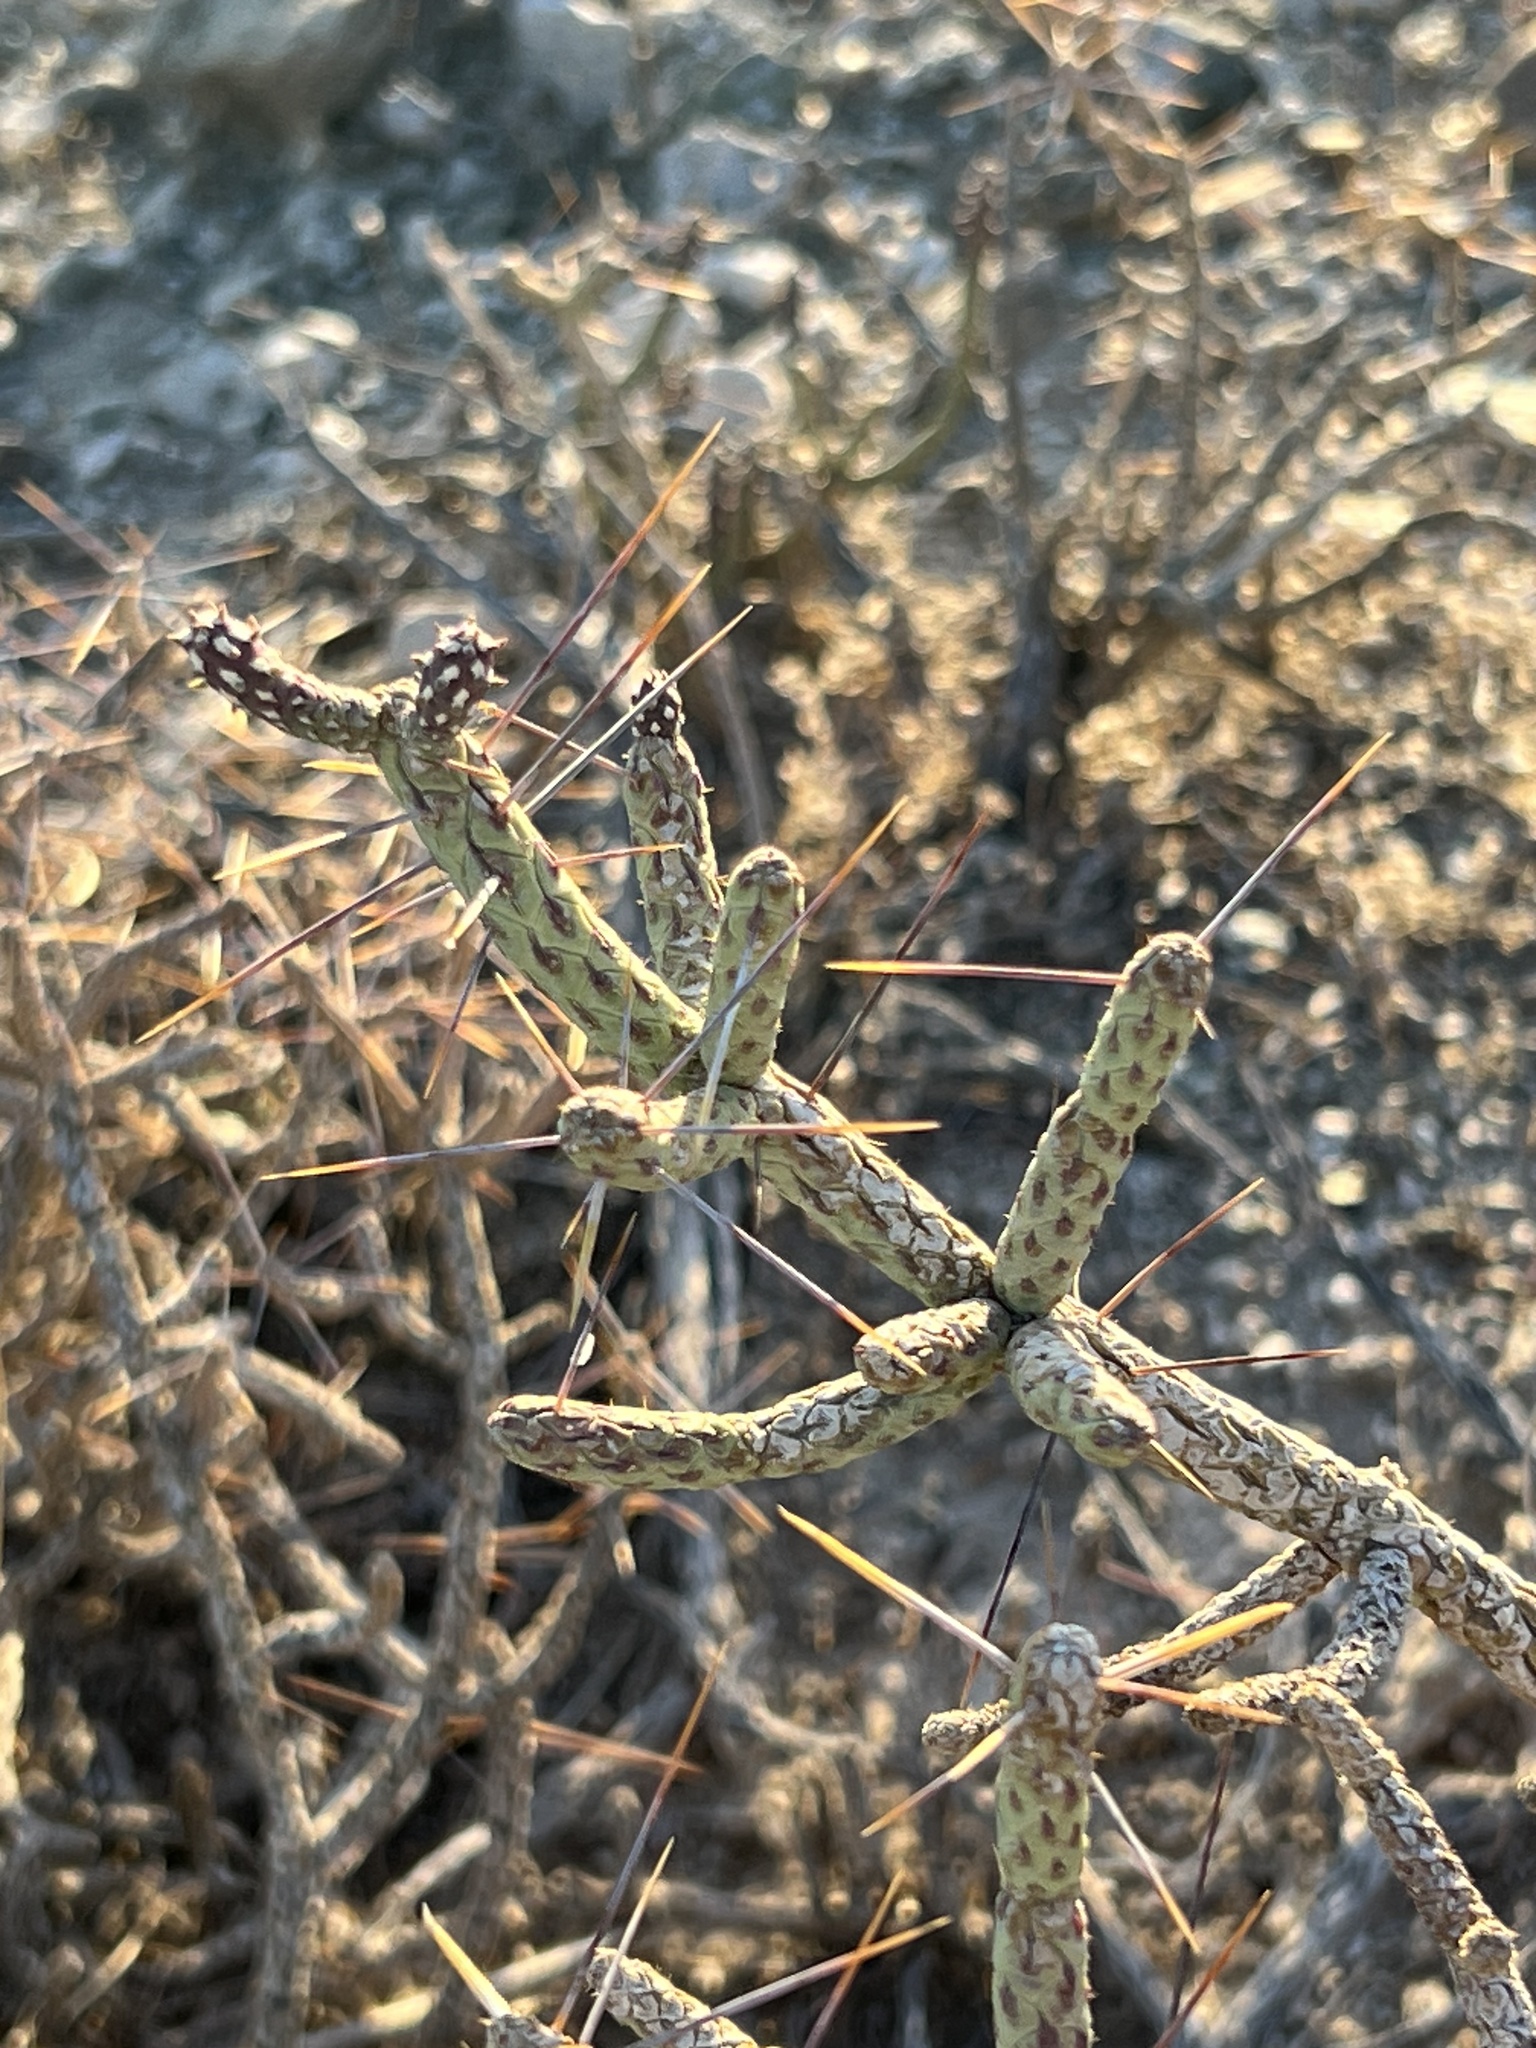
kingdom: Plantae
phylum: Tracheophyta
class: Magnoliopsida
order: Caryophyllales
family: Cactaceae
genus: Cylindropuntia
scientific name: Cylindropuntia ramosissima
